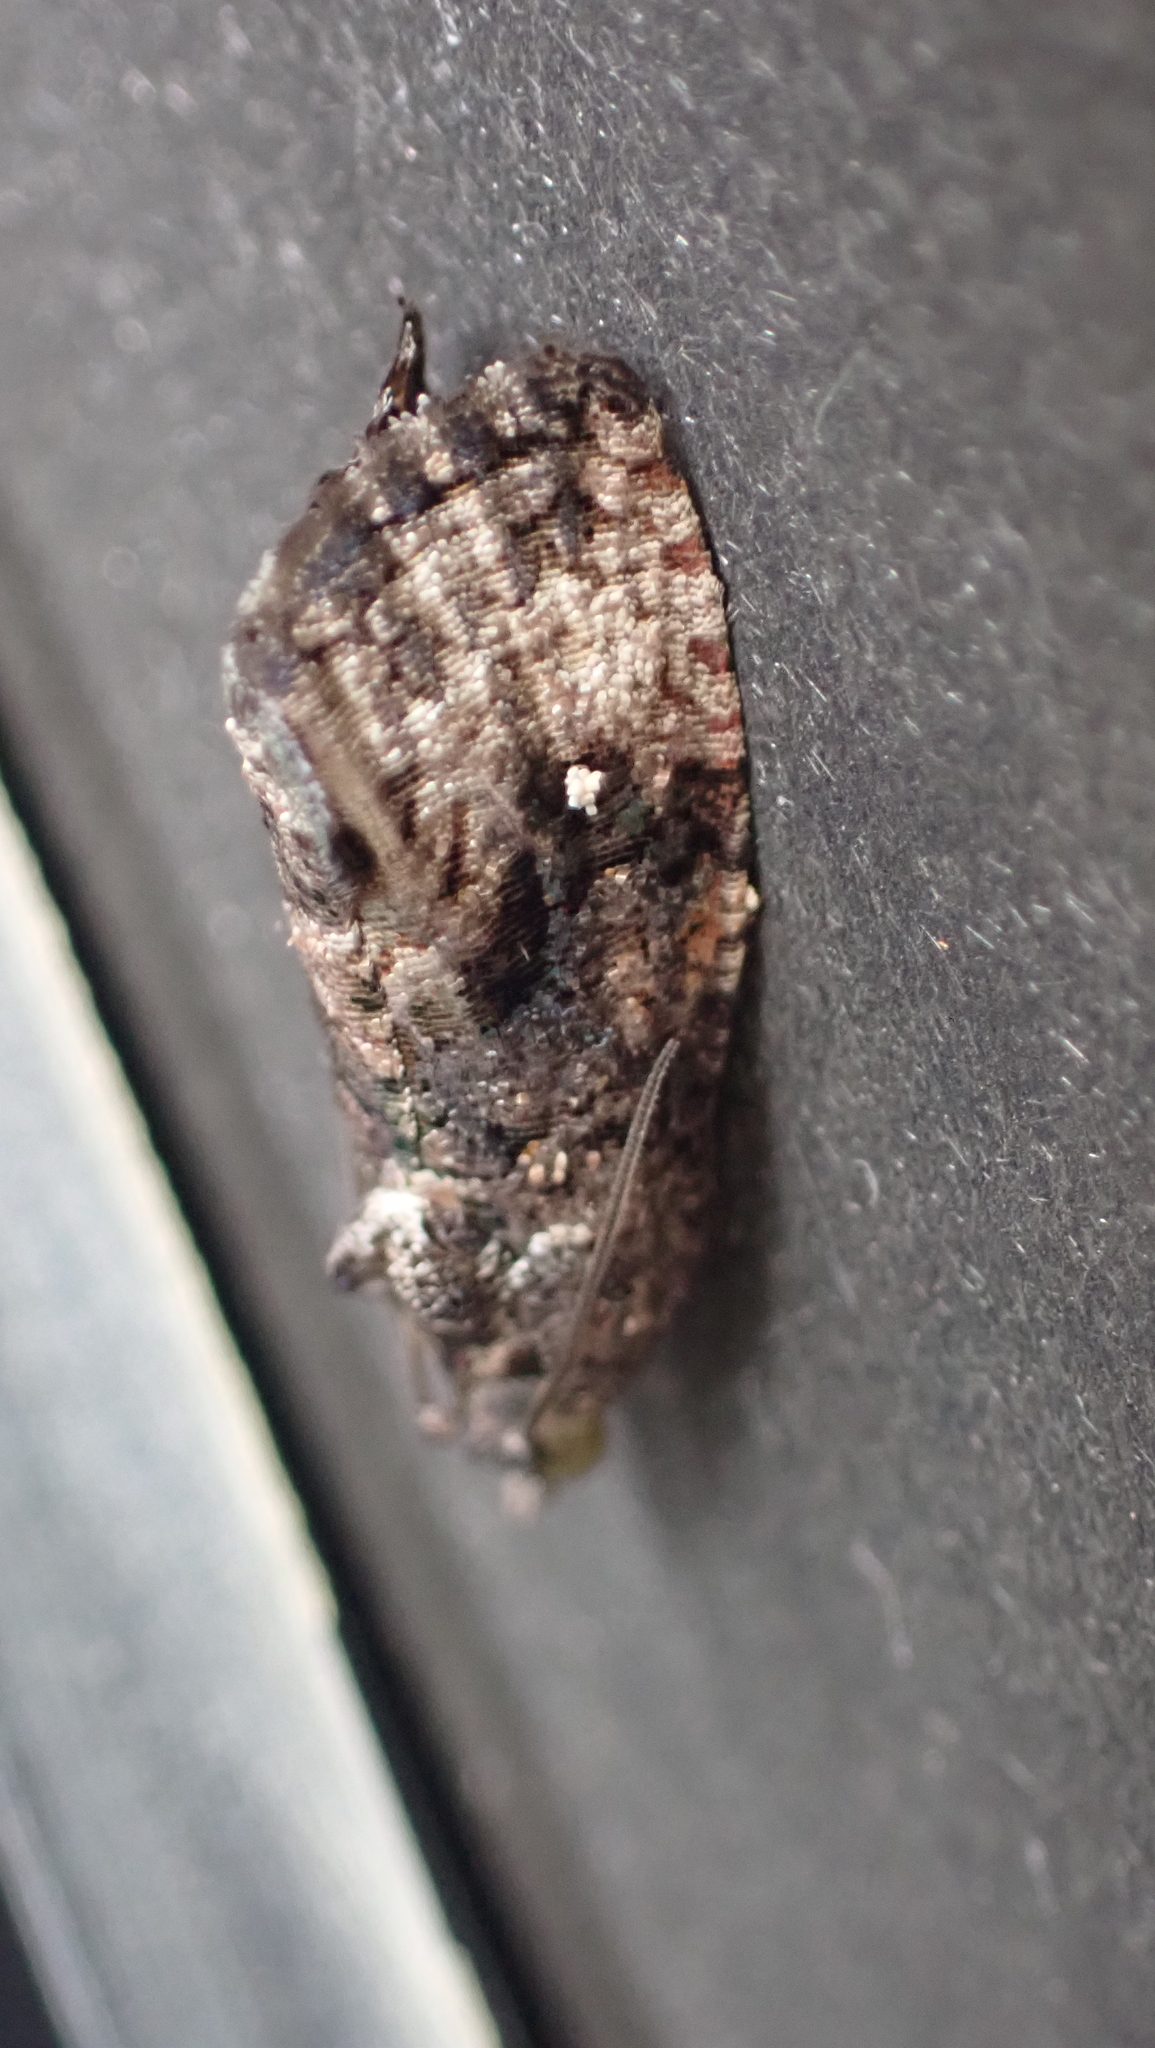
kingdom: Animalia
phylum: Arthropoda
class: Insecta
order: Lepidoptera
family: Tortricidae
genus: Gymnandrosoma
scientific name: Gymnandrosoma punctidiscanum
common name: Dotted ecdytolopha moth
